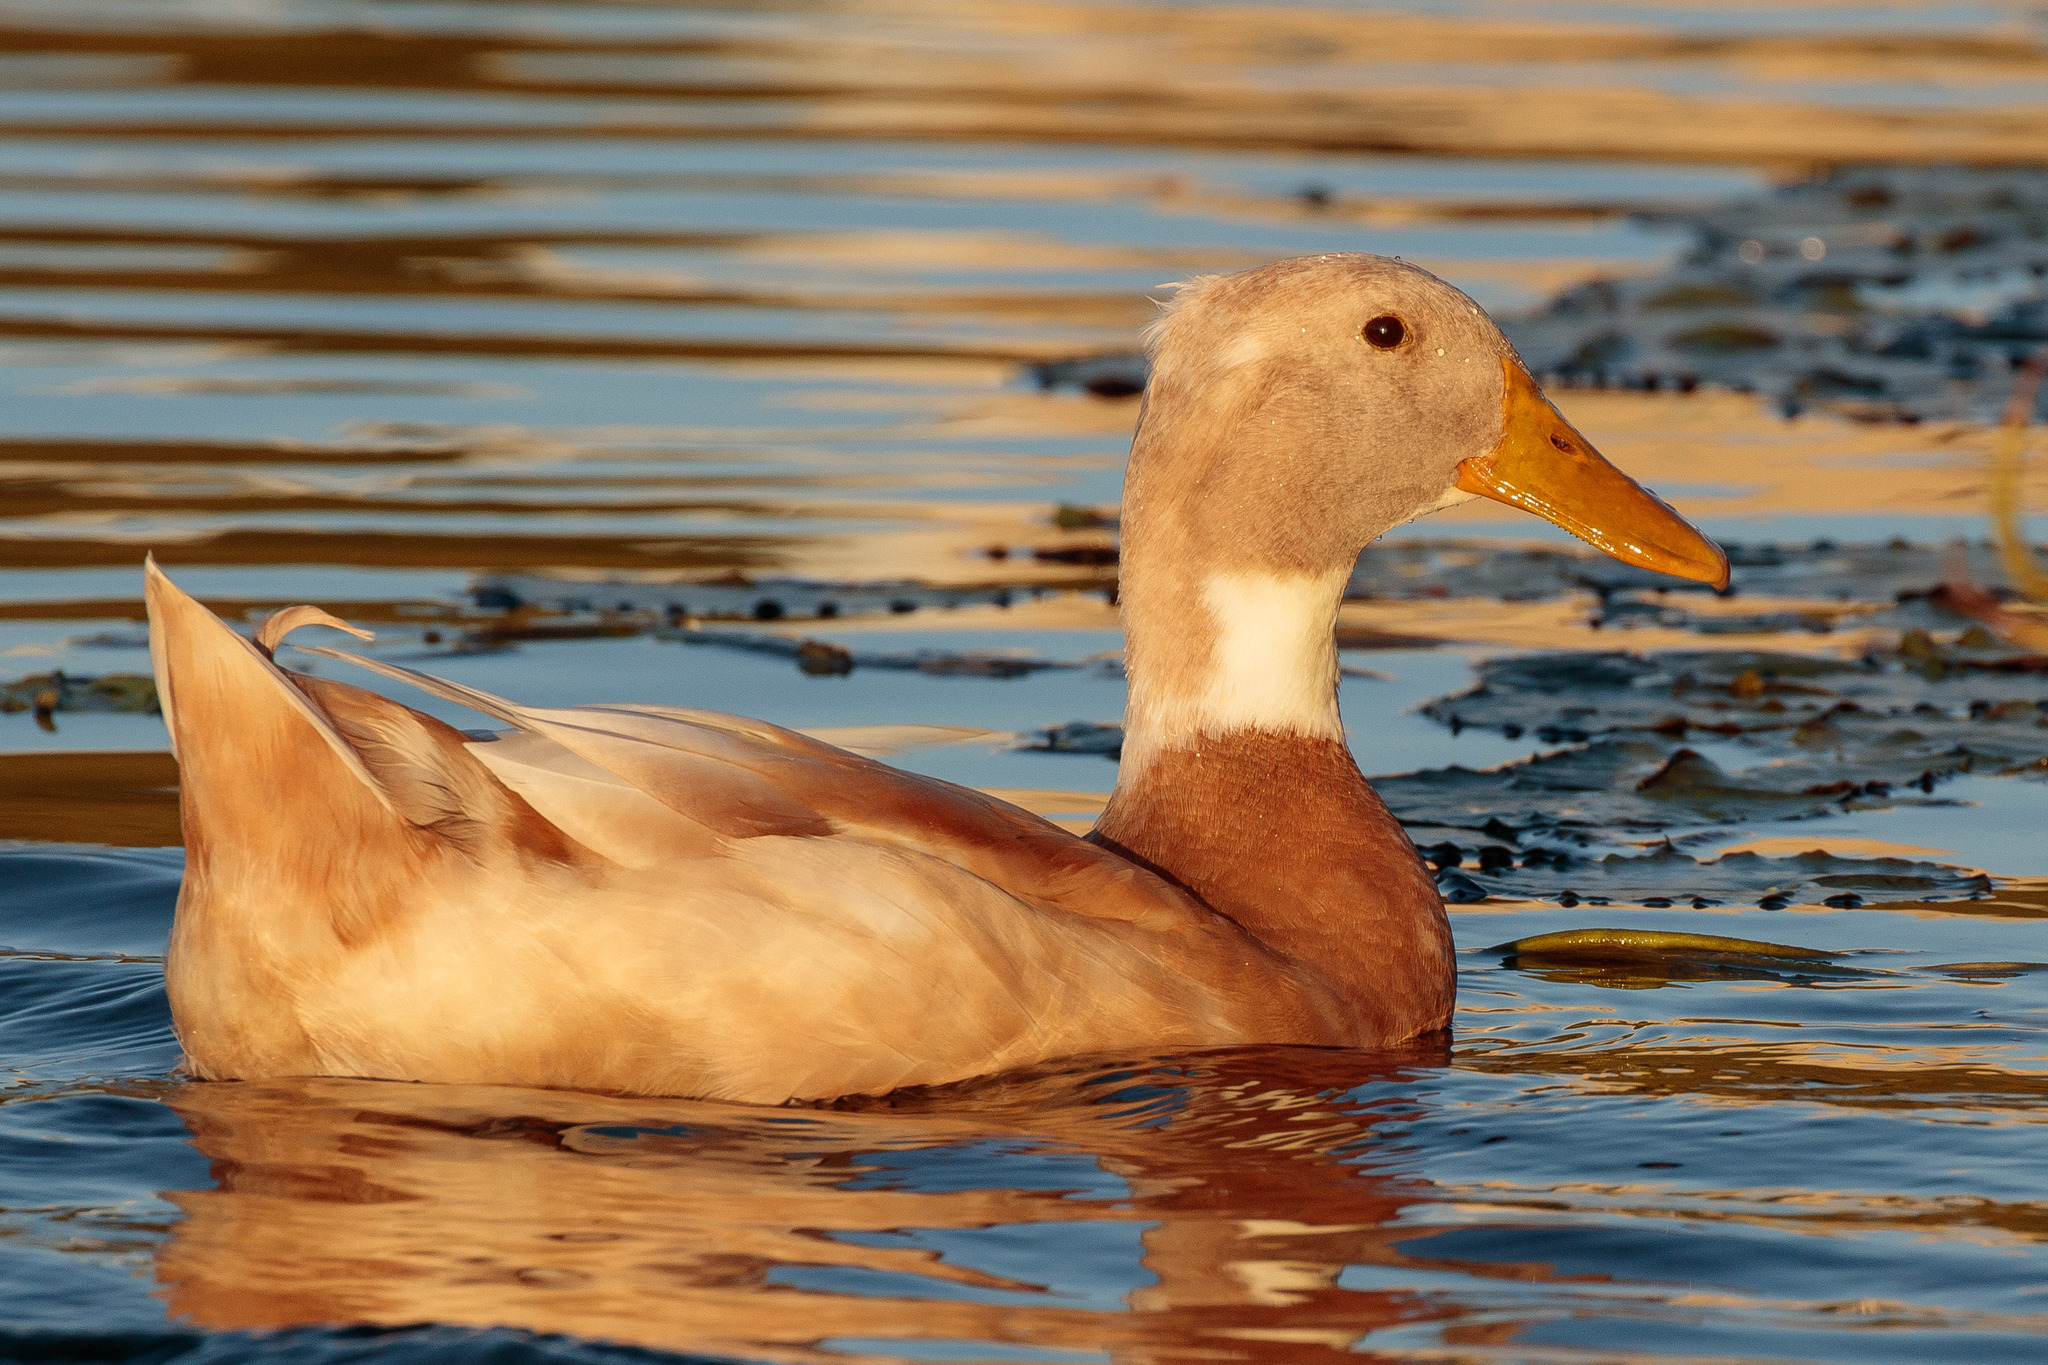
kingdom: Animalia
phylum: Chordata
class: Aves
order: Anseriformes
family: Anatidae
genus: Anas
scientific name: Anas platyrhynchos
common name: Mallard
